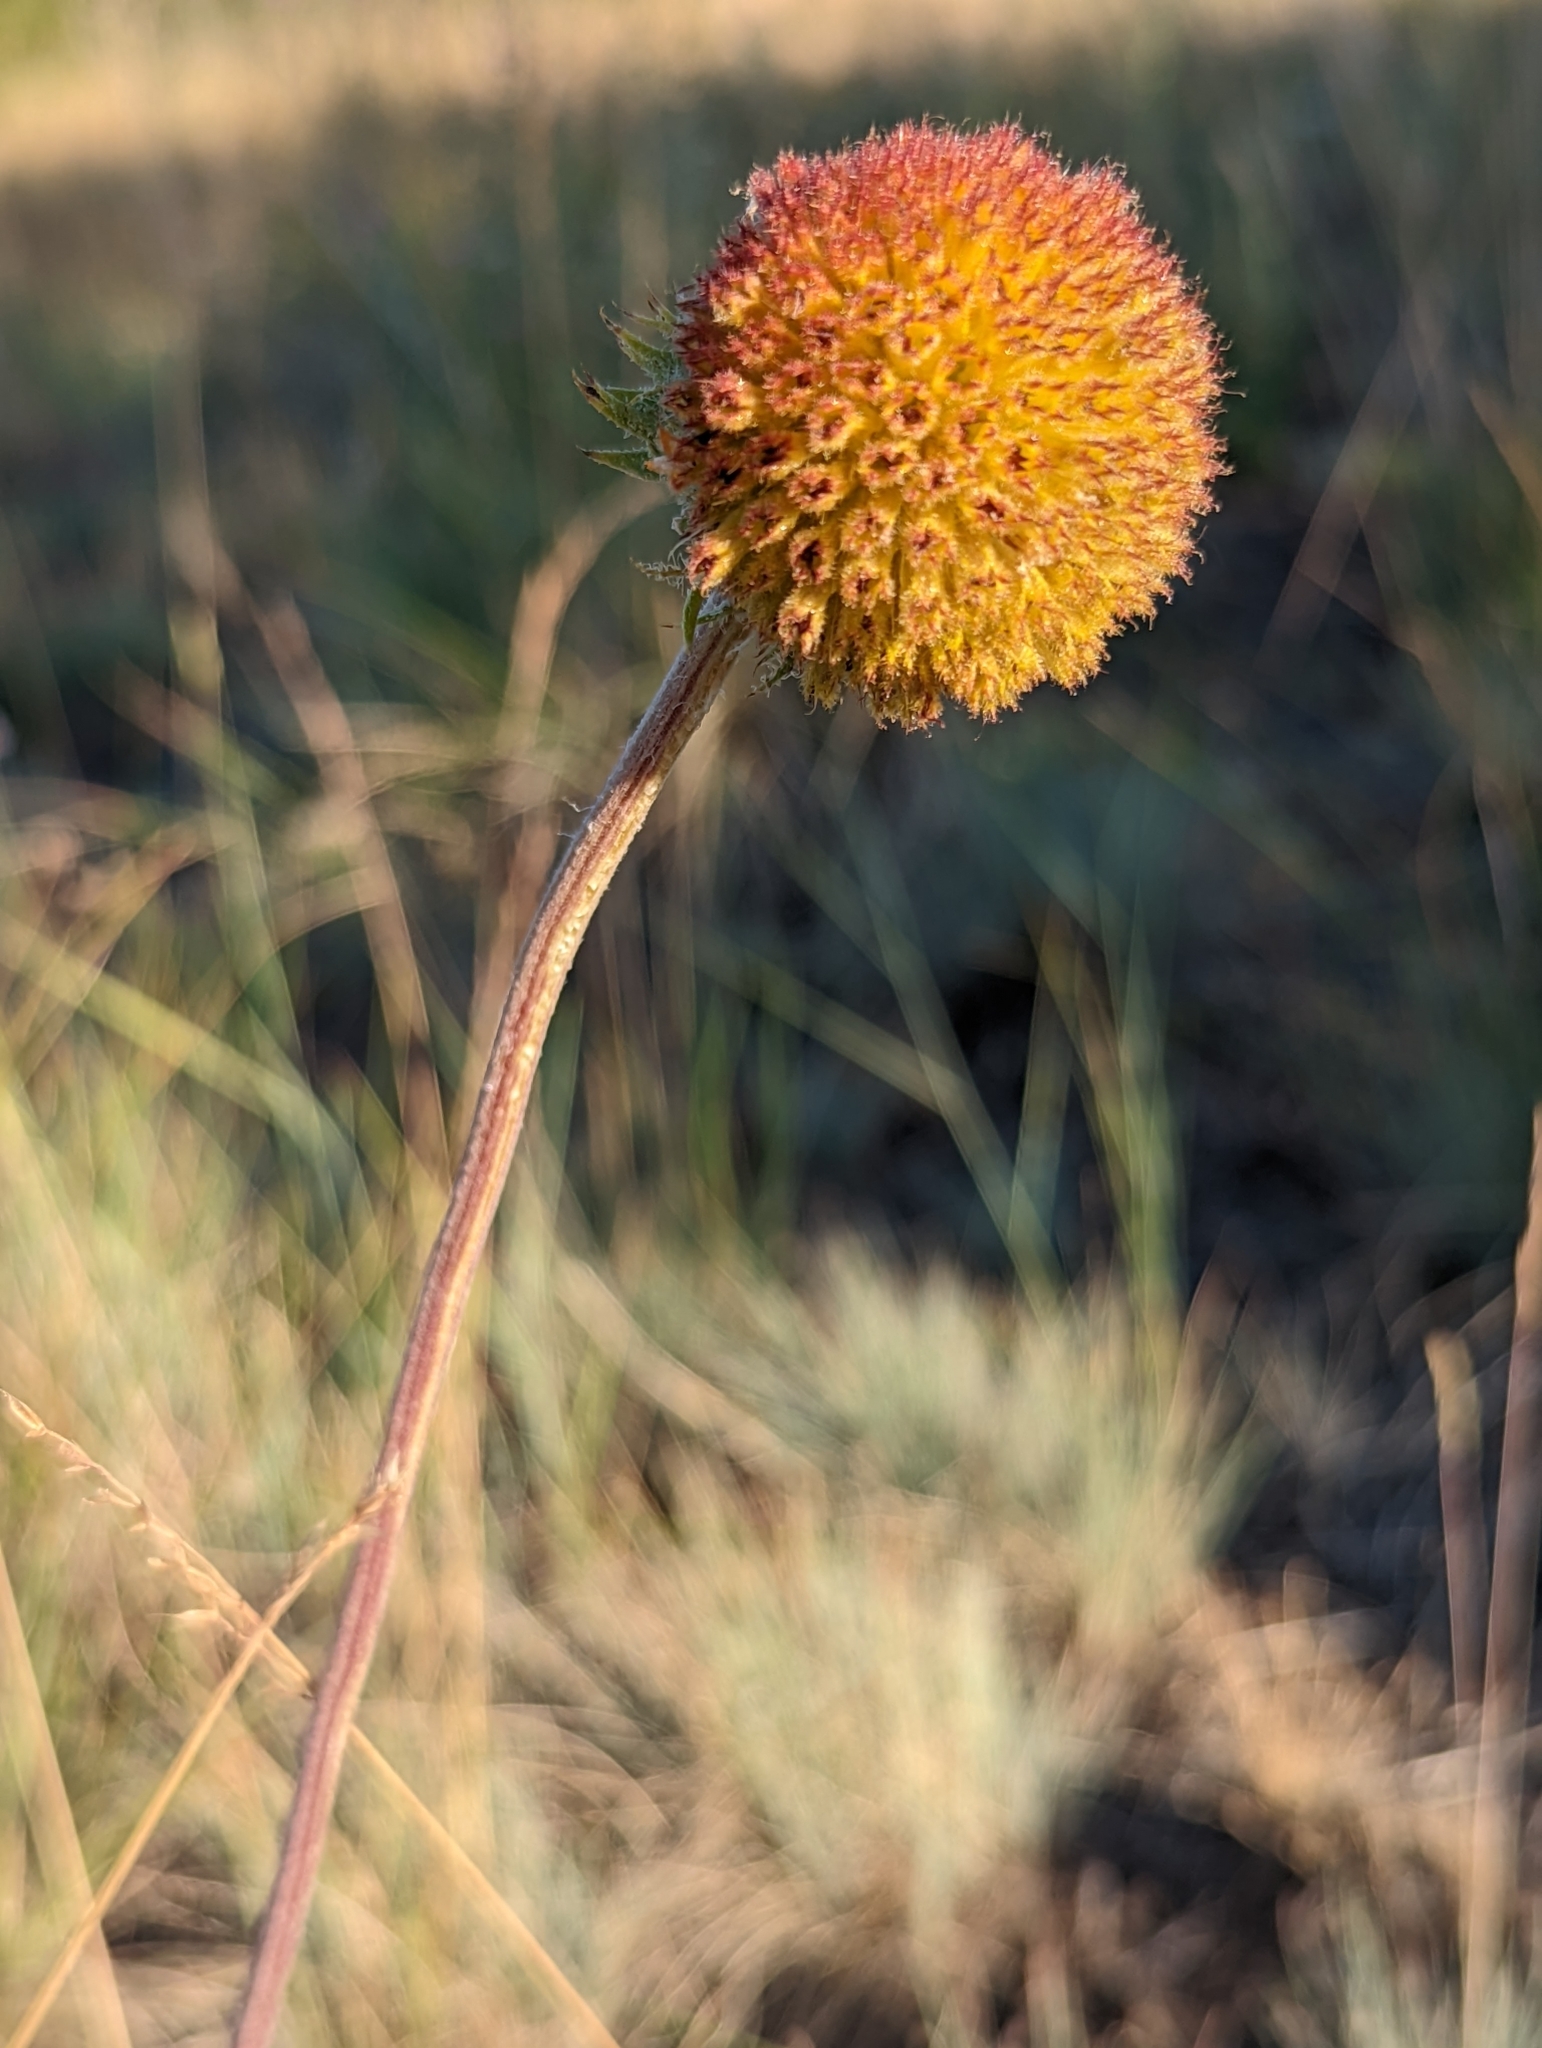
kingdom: Plantae
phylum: Tracheophyta
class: Magnoliopsida
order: Asterales
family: Asteraceae
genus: Gaillardia
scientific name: Gaillardia aristata
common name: Blanket-flower
